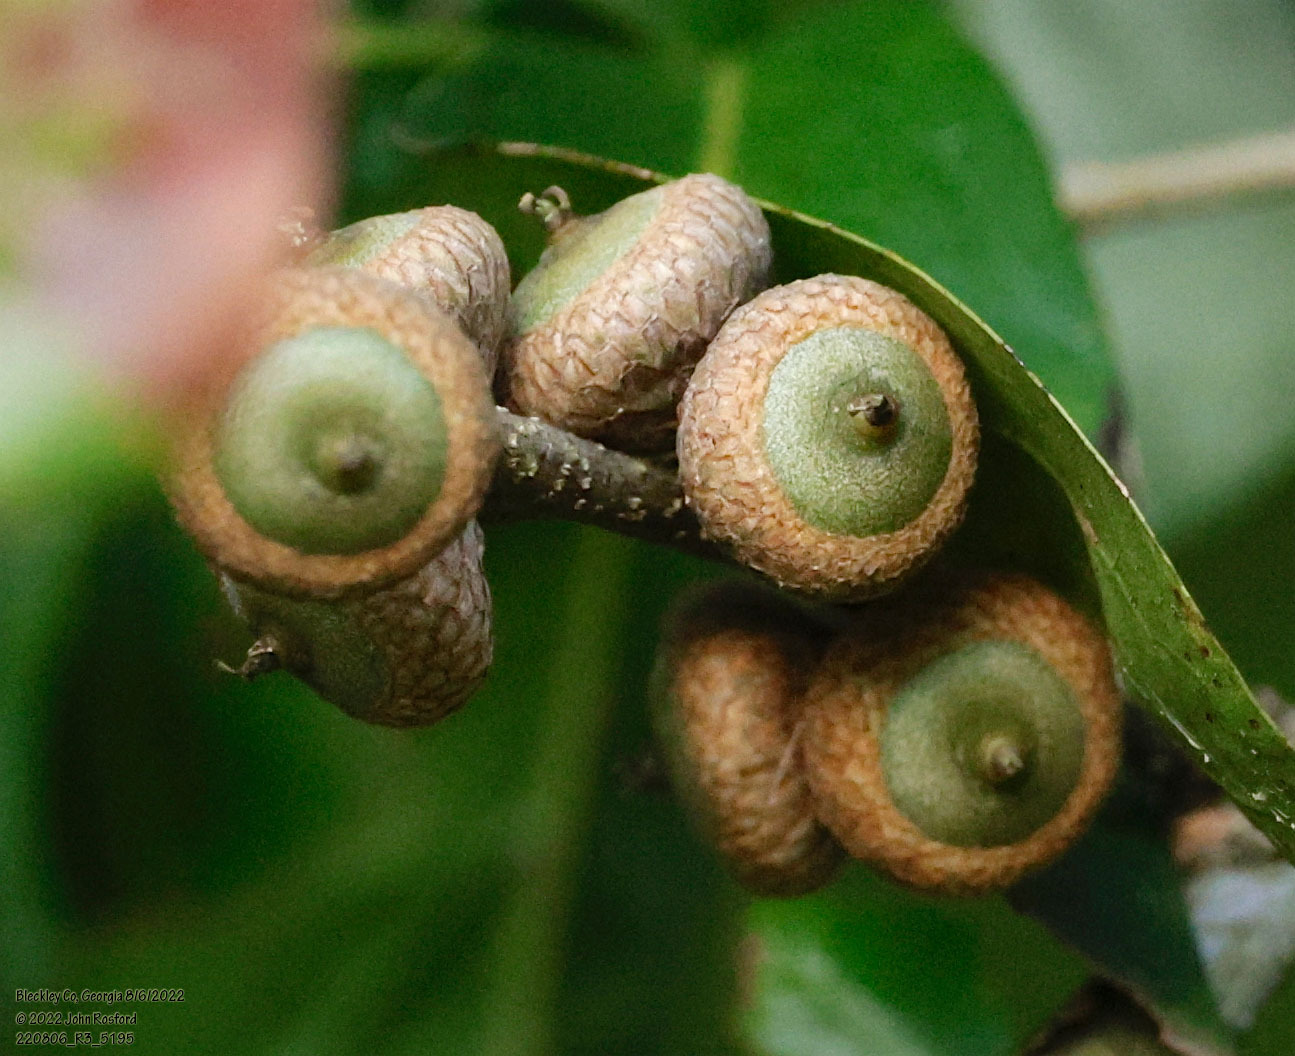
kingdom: Plantae
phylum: Tracheophyta
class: Magnoliopsida
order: Fagales
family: Fagaceae
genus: Quercus
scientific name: Quercus nigra
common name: Water oak
